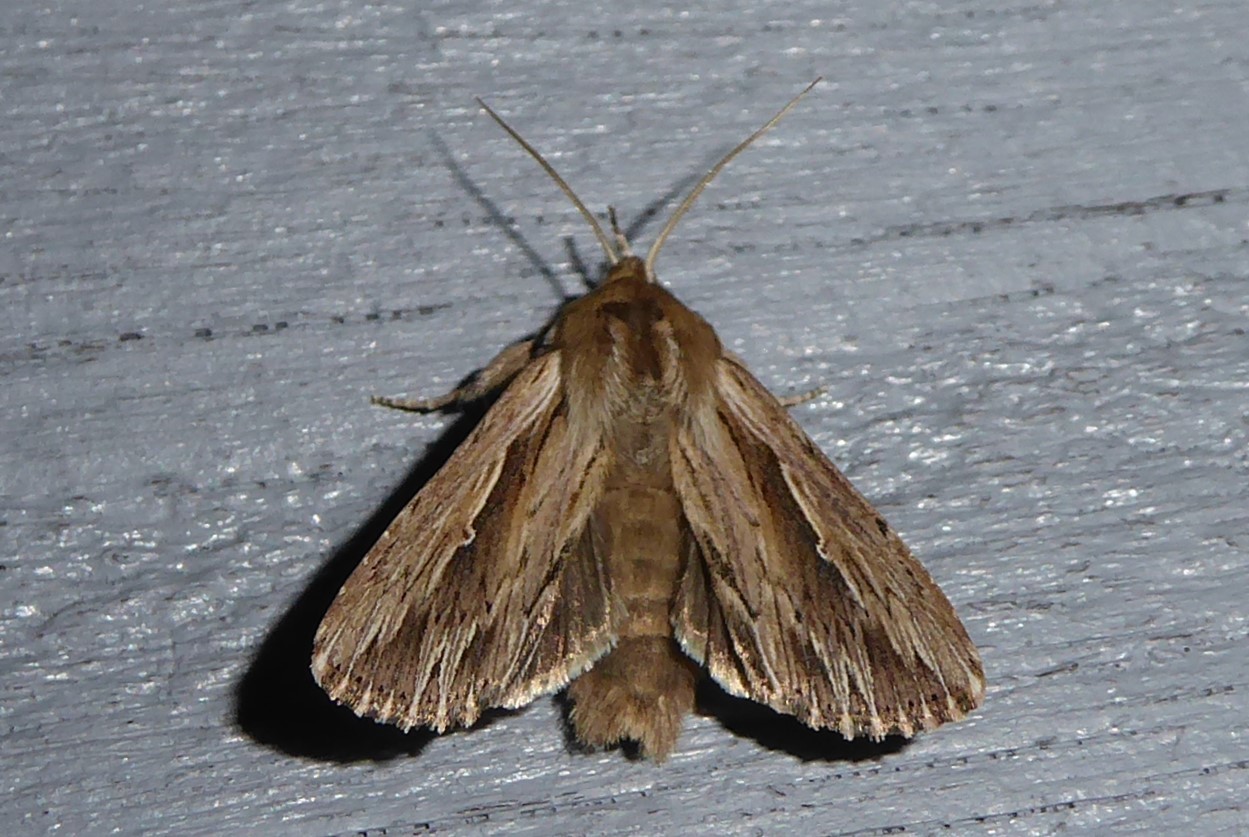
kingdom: Animalia
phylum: Arthropoda
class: Insecta
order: Lepidoptera
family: Noctuidae
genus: Persectania
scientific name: Persectania aversa
